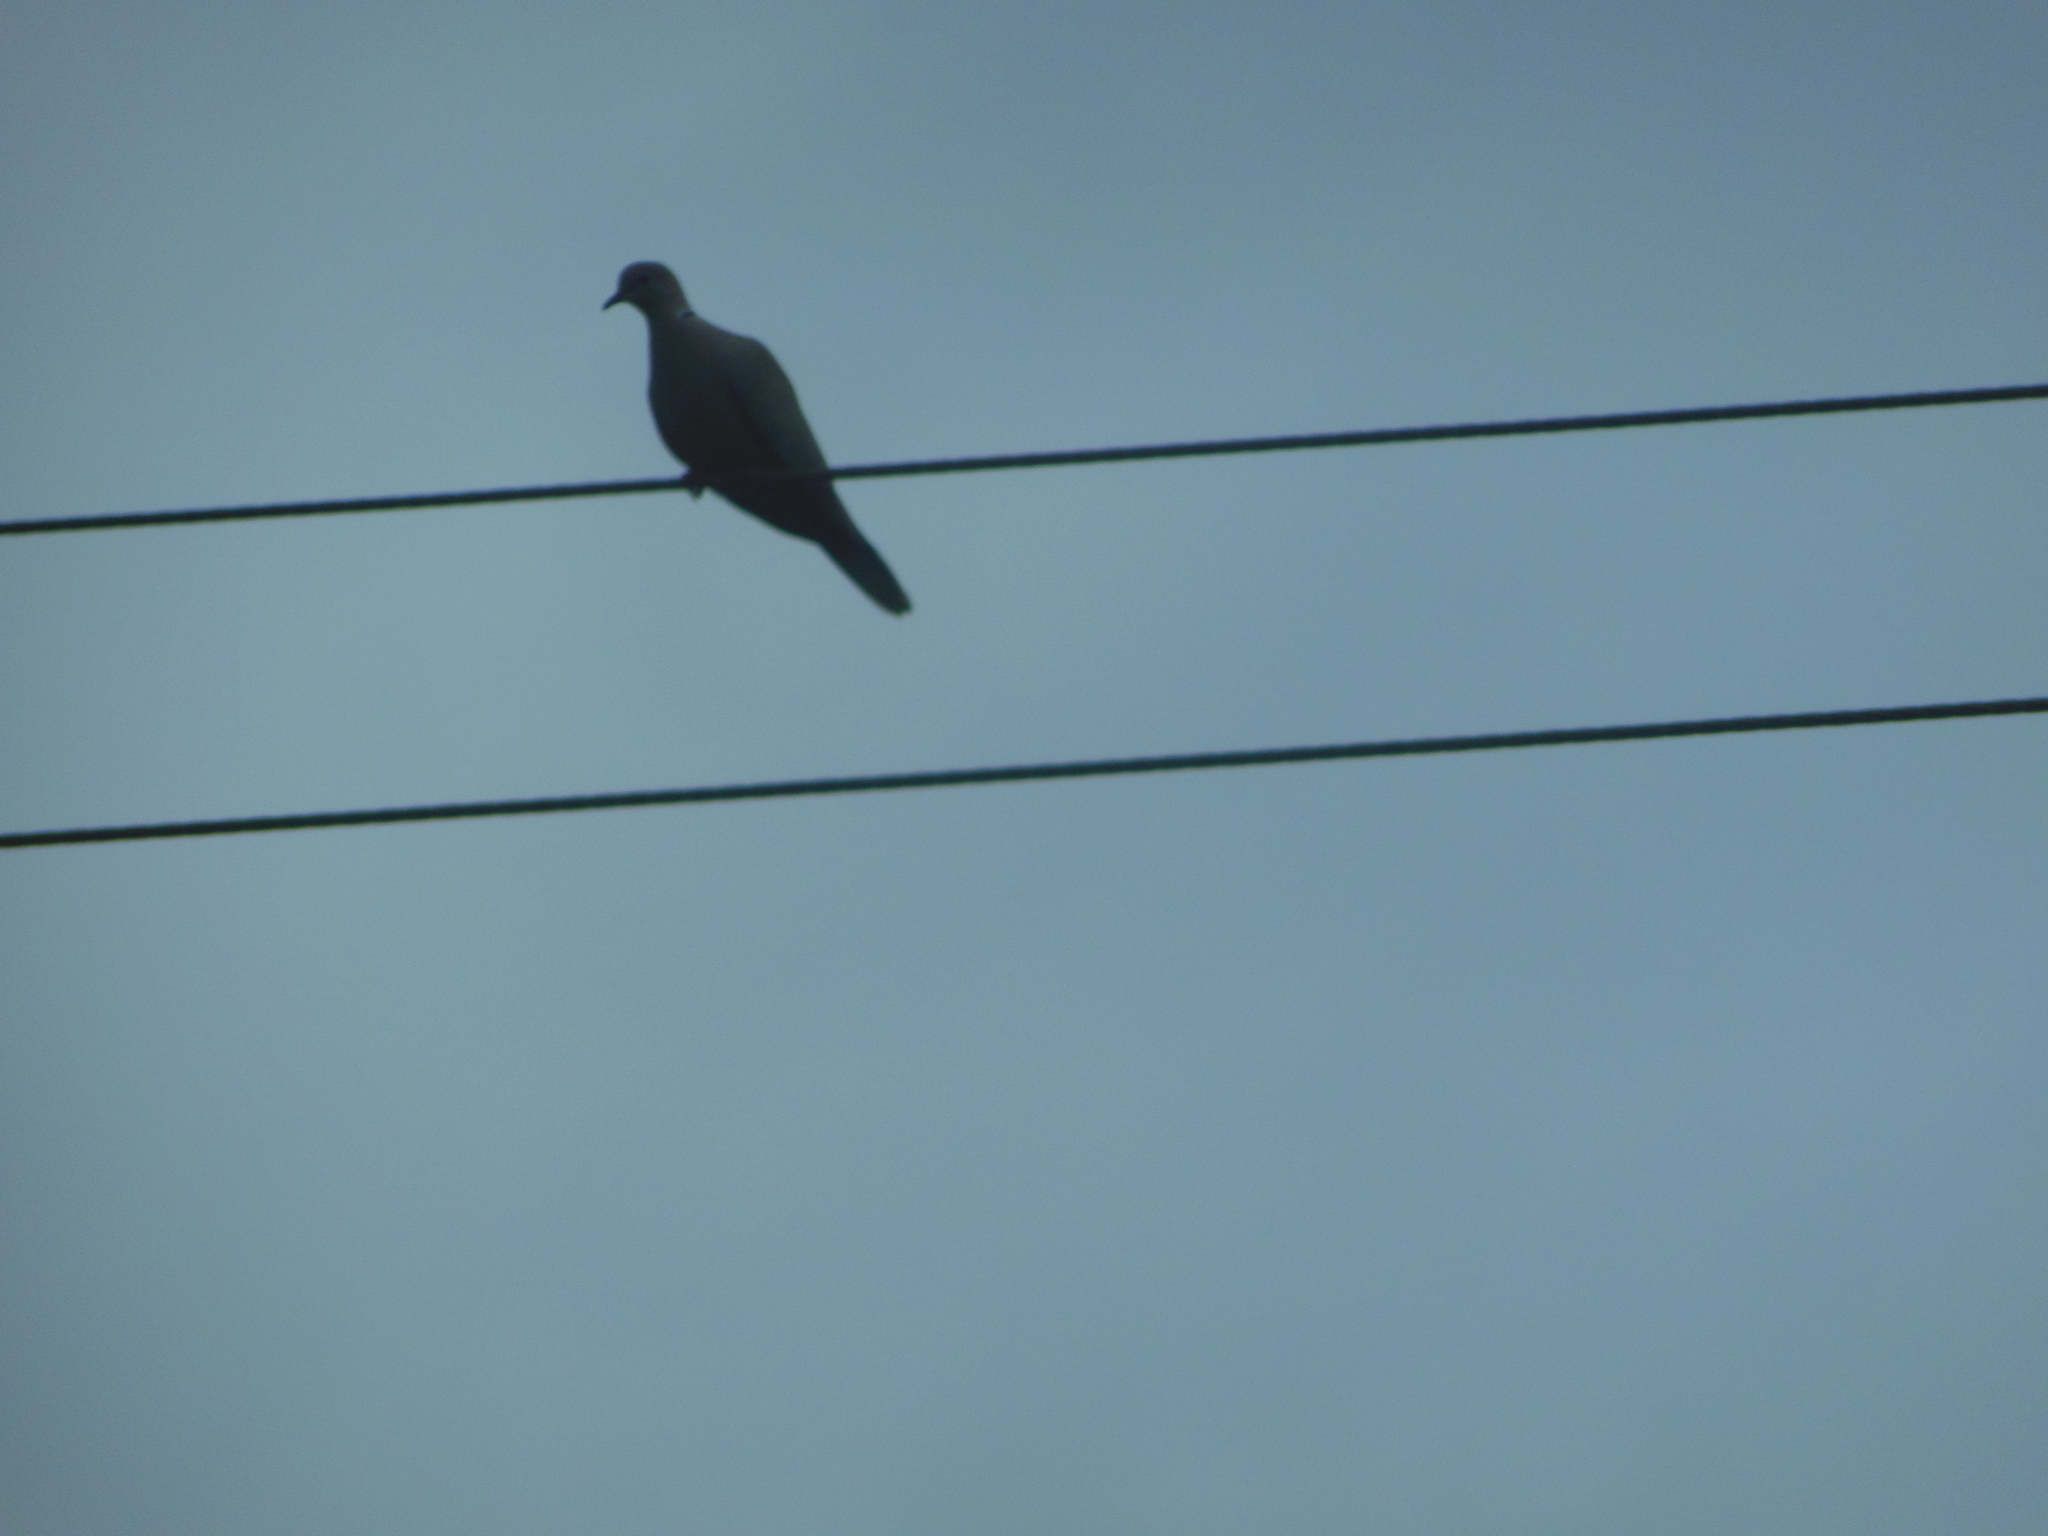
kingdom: Animalia
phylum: Chordata
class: Aves
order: Columbiformes
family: Columbidae
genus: Streptopelia
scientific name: Streptopelia decaocto
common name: Eurasian collared dove
